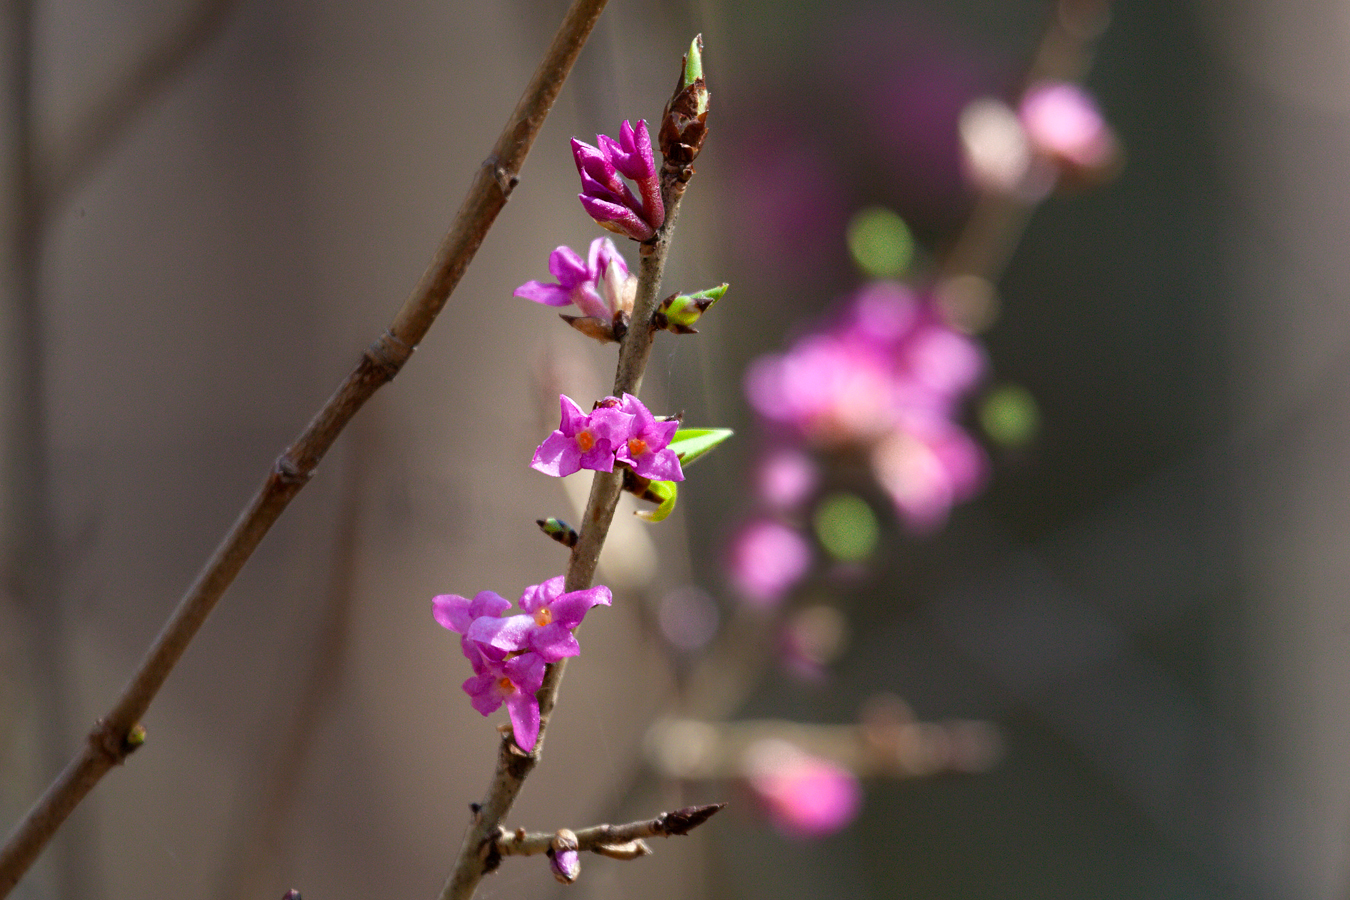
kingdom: Plantae
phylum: Tracheophyta
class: Magnoliopsida
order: Malvales
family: Thymelaeaceae
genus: Daphne
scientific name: Daphne mezereum
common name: Mezereon
